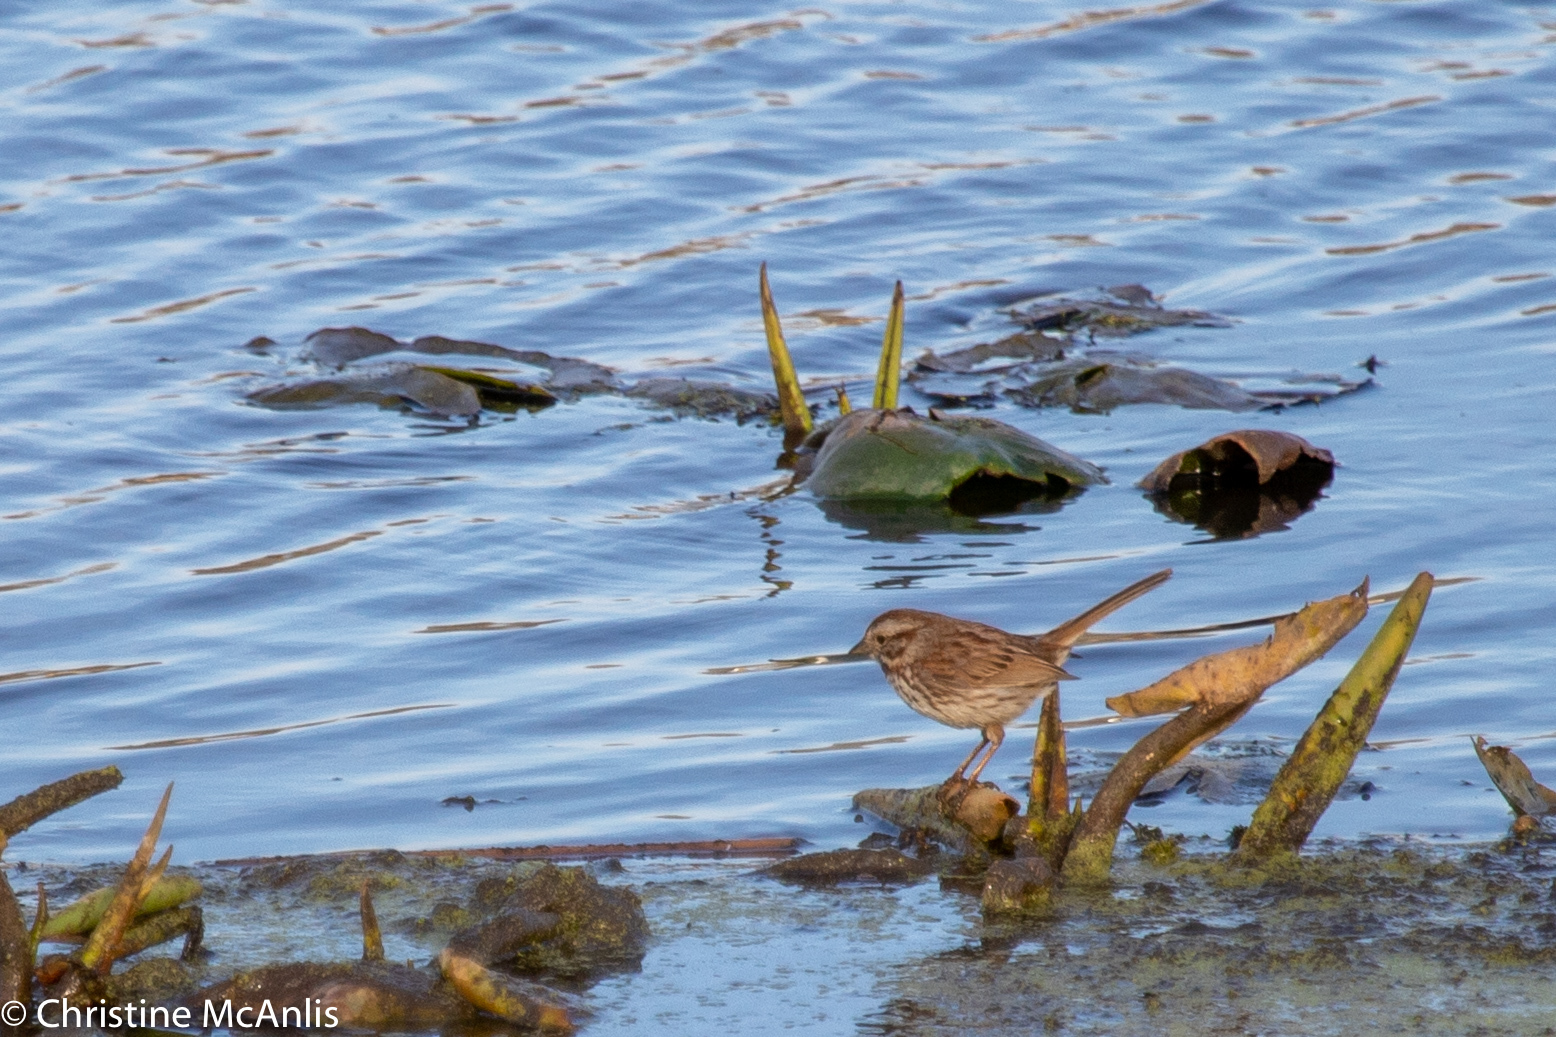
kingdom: Animalia
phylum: Chordata
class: Aves
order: Passeriformes
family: Passerellidae
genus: Melospiza
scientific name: Melospiza melodia
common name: Song sparrow
